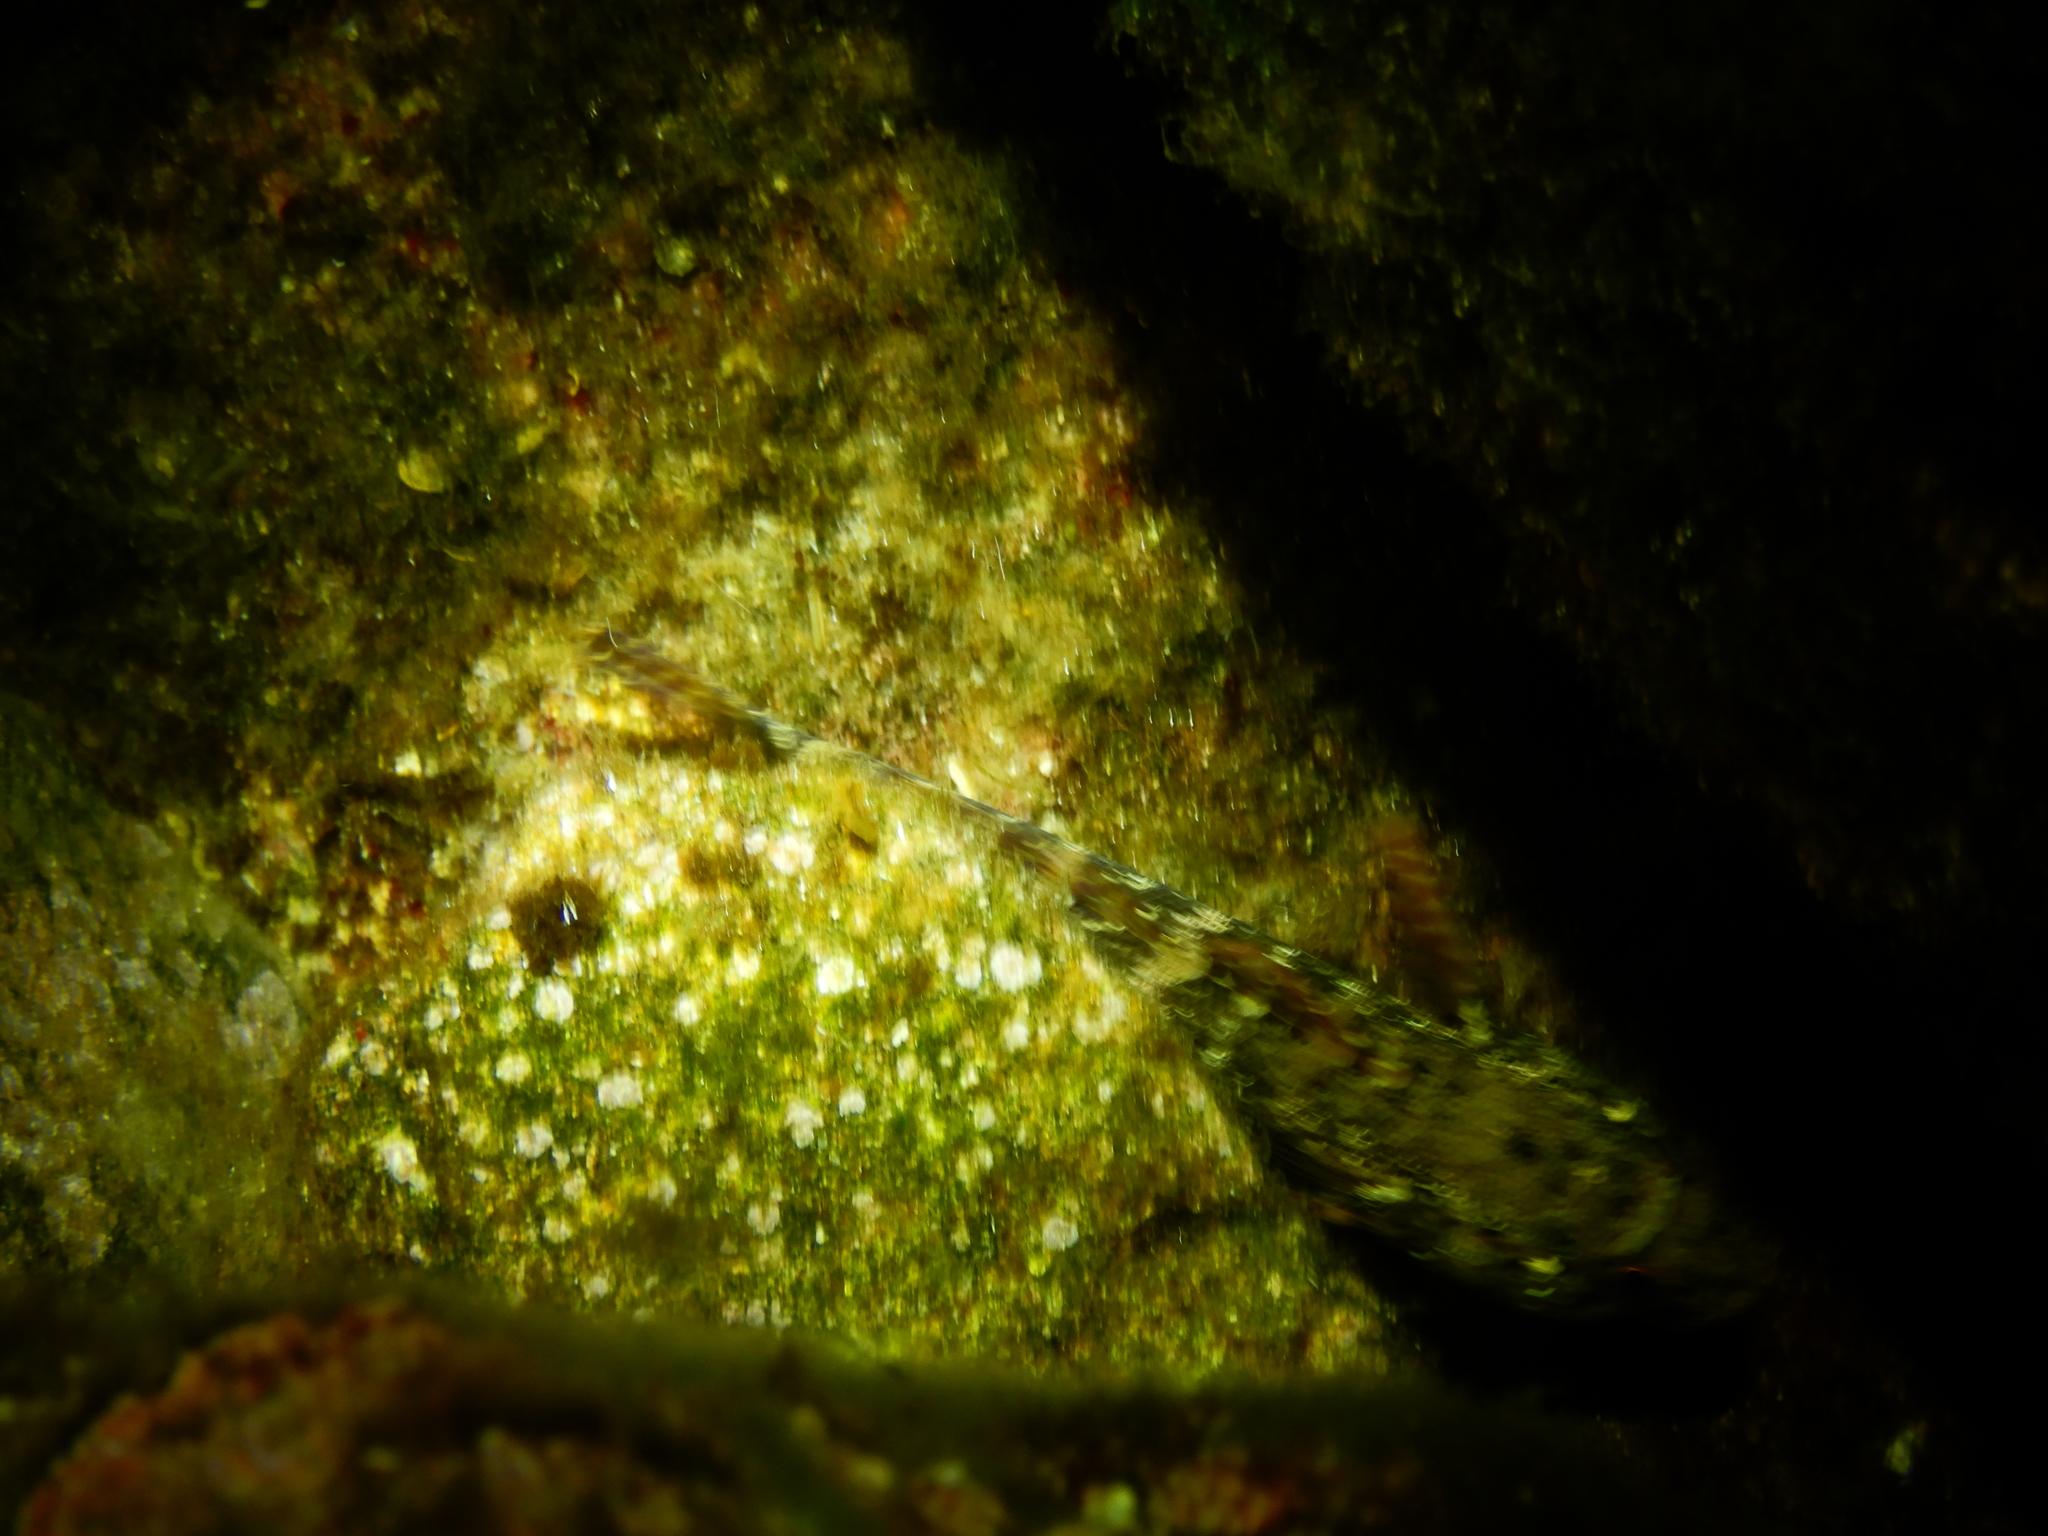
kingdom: Animalia
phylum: Chordata
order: Perciformes
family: Gobiidae
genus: Gobius
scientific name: Gobius paganellus
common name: Rock goby
